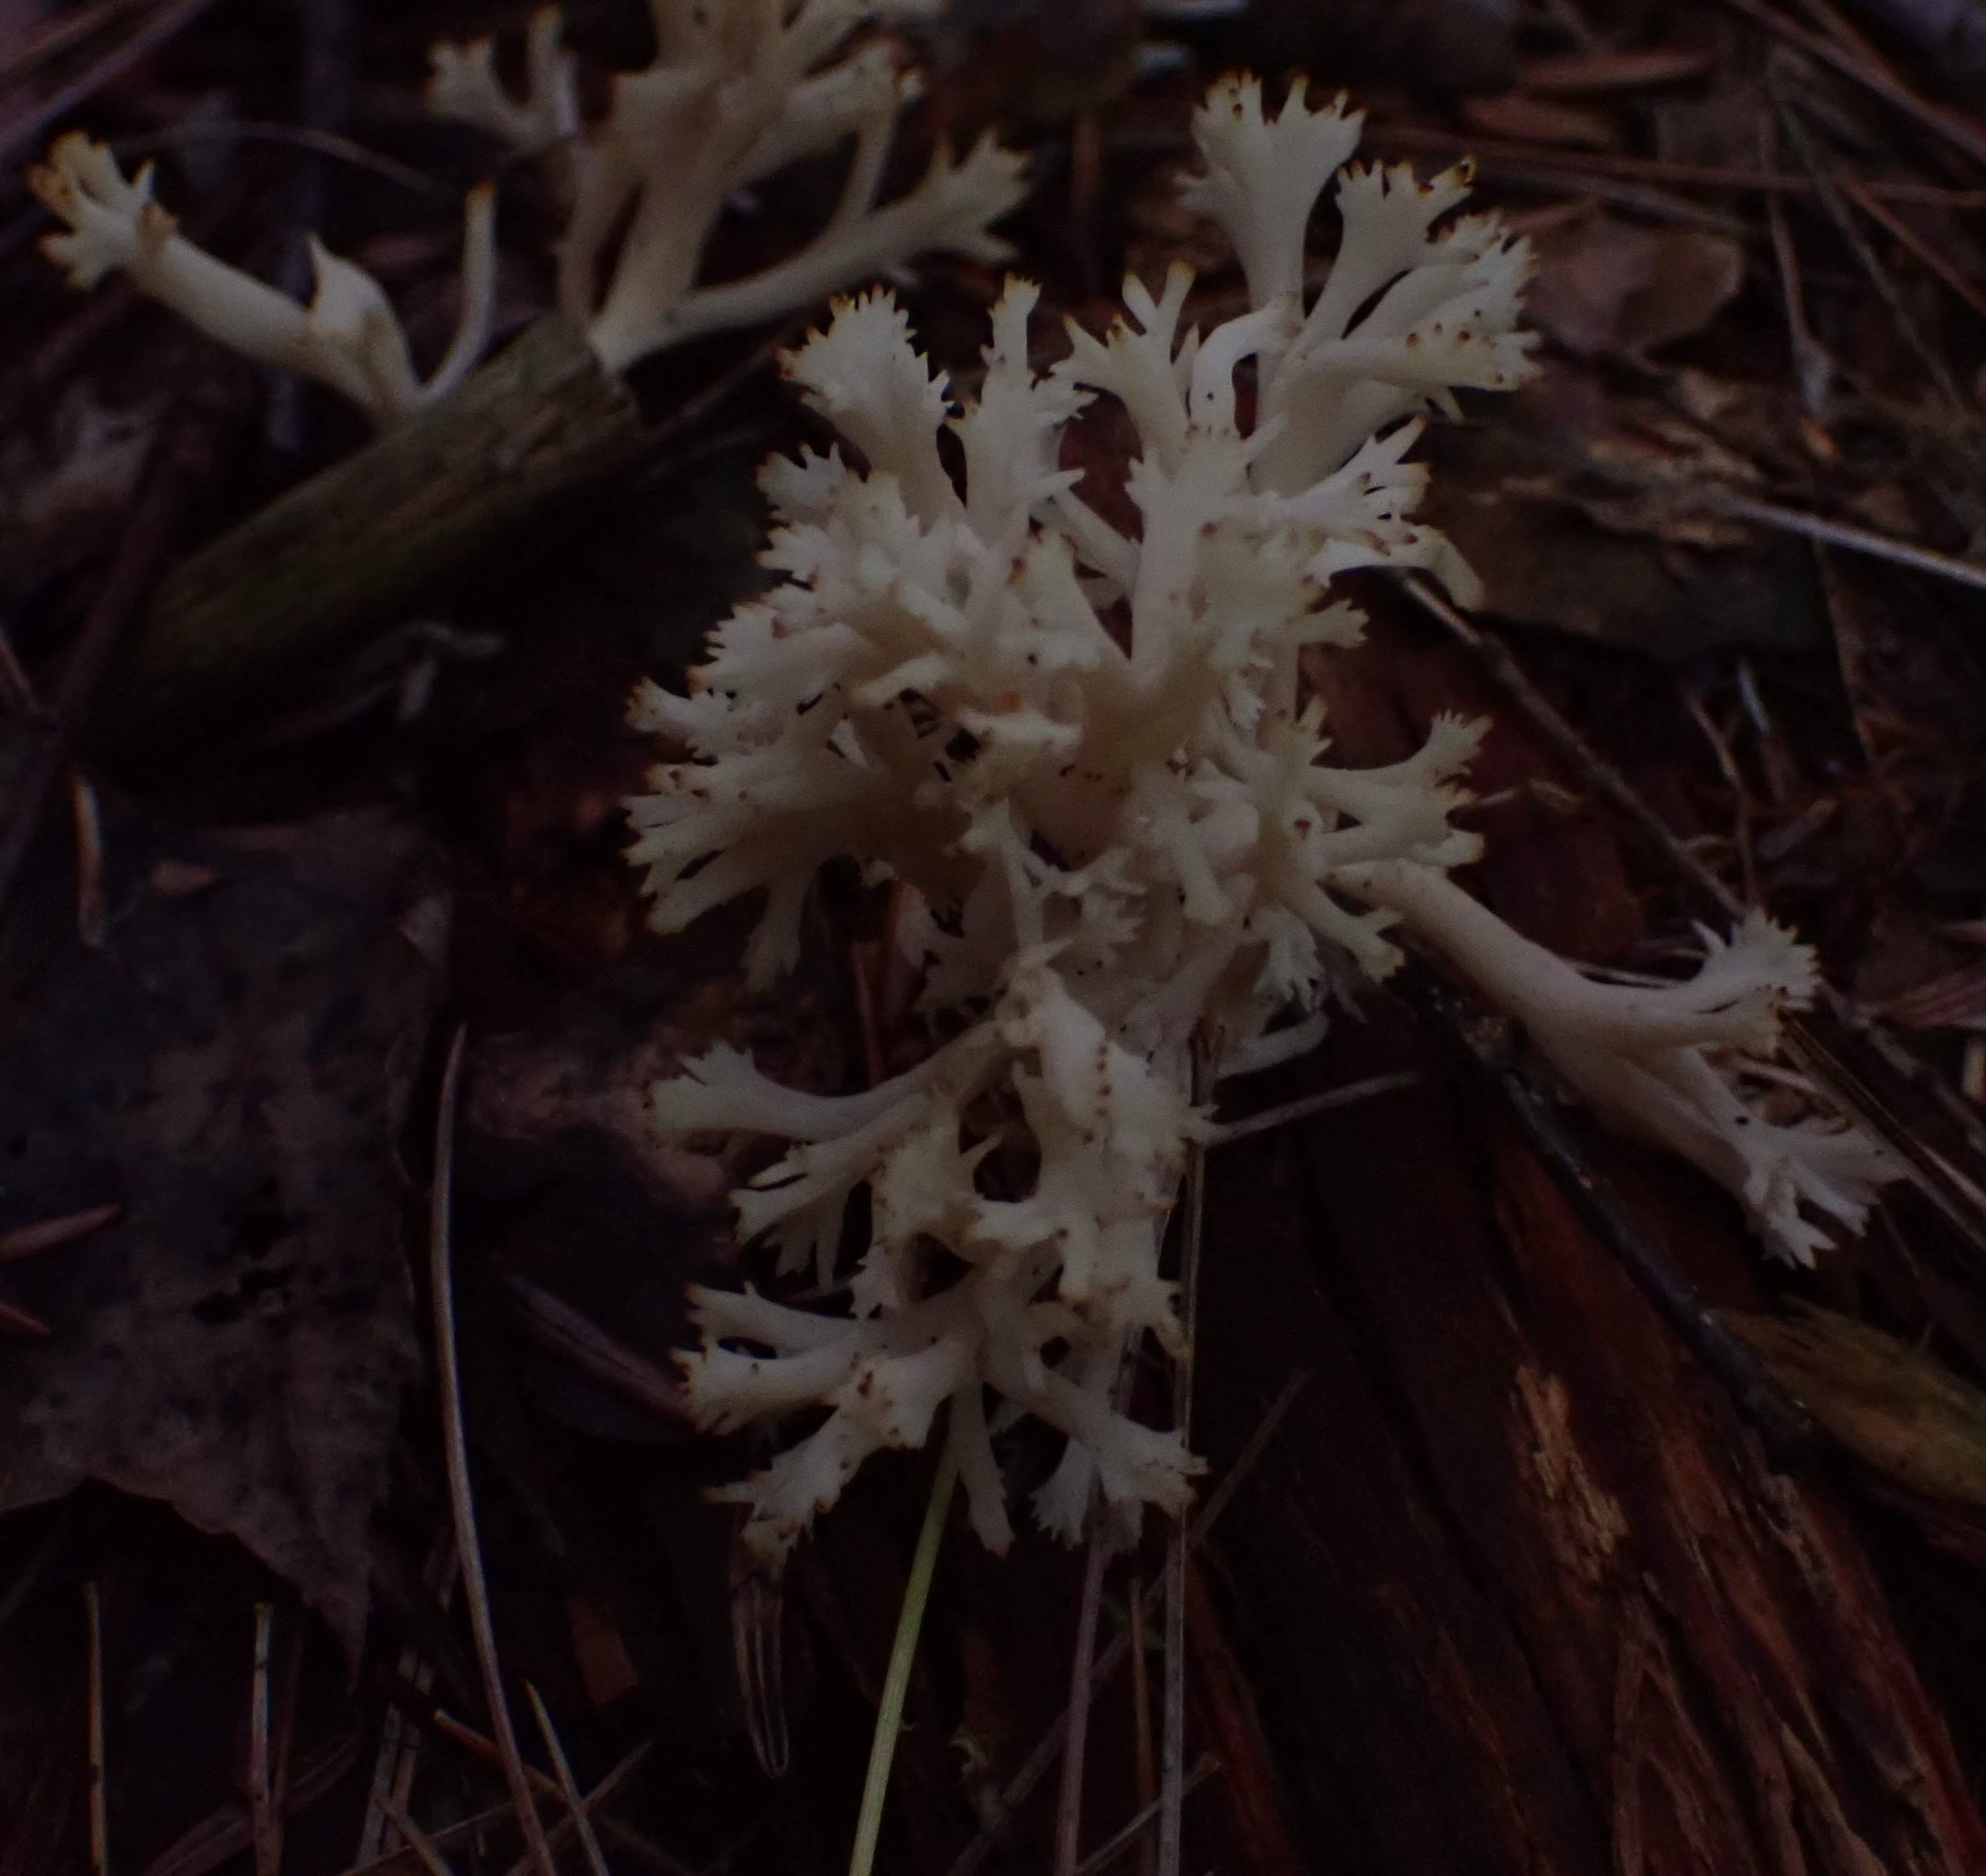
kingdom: Fungi
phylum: Basidiomycota
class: Agaricomycetes
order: Cantharellales
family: Hydnaceae
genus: Clavulina
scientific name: Clavulina coralloides
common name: Crested coral
